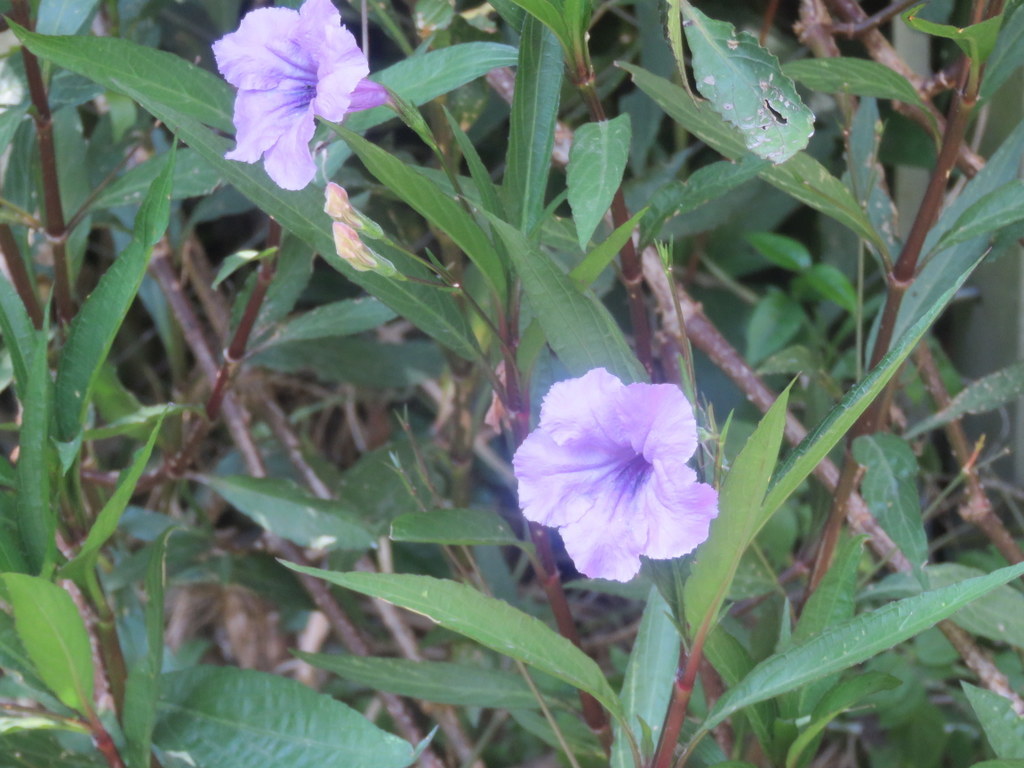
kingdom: Plantae
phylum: Tracheophyta
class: Magnoliopsida
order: Lamiales
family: Acanthaceae
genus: Ruellia
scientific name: Ruellia simplex
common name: Softseed wild petunia
